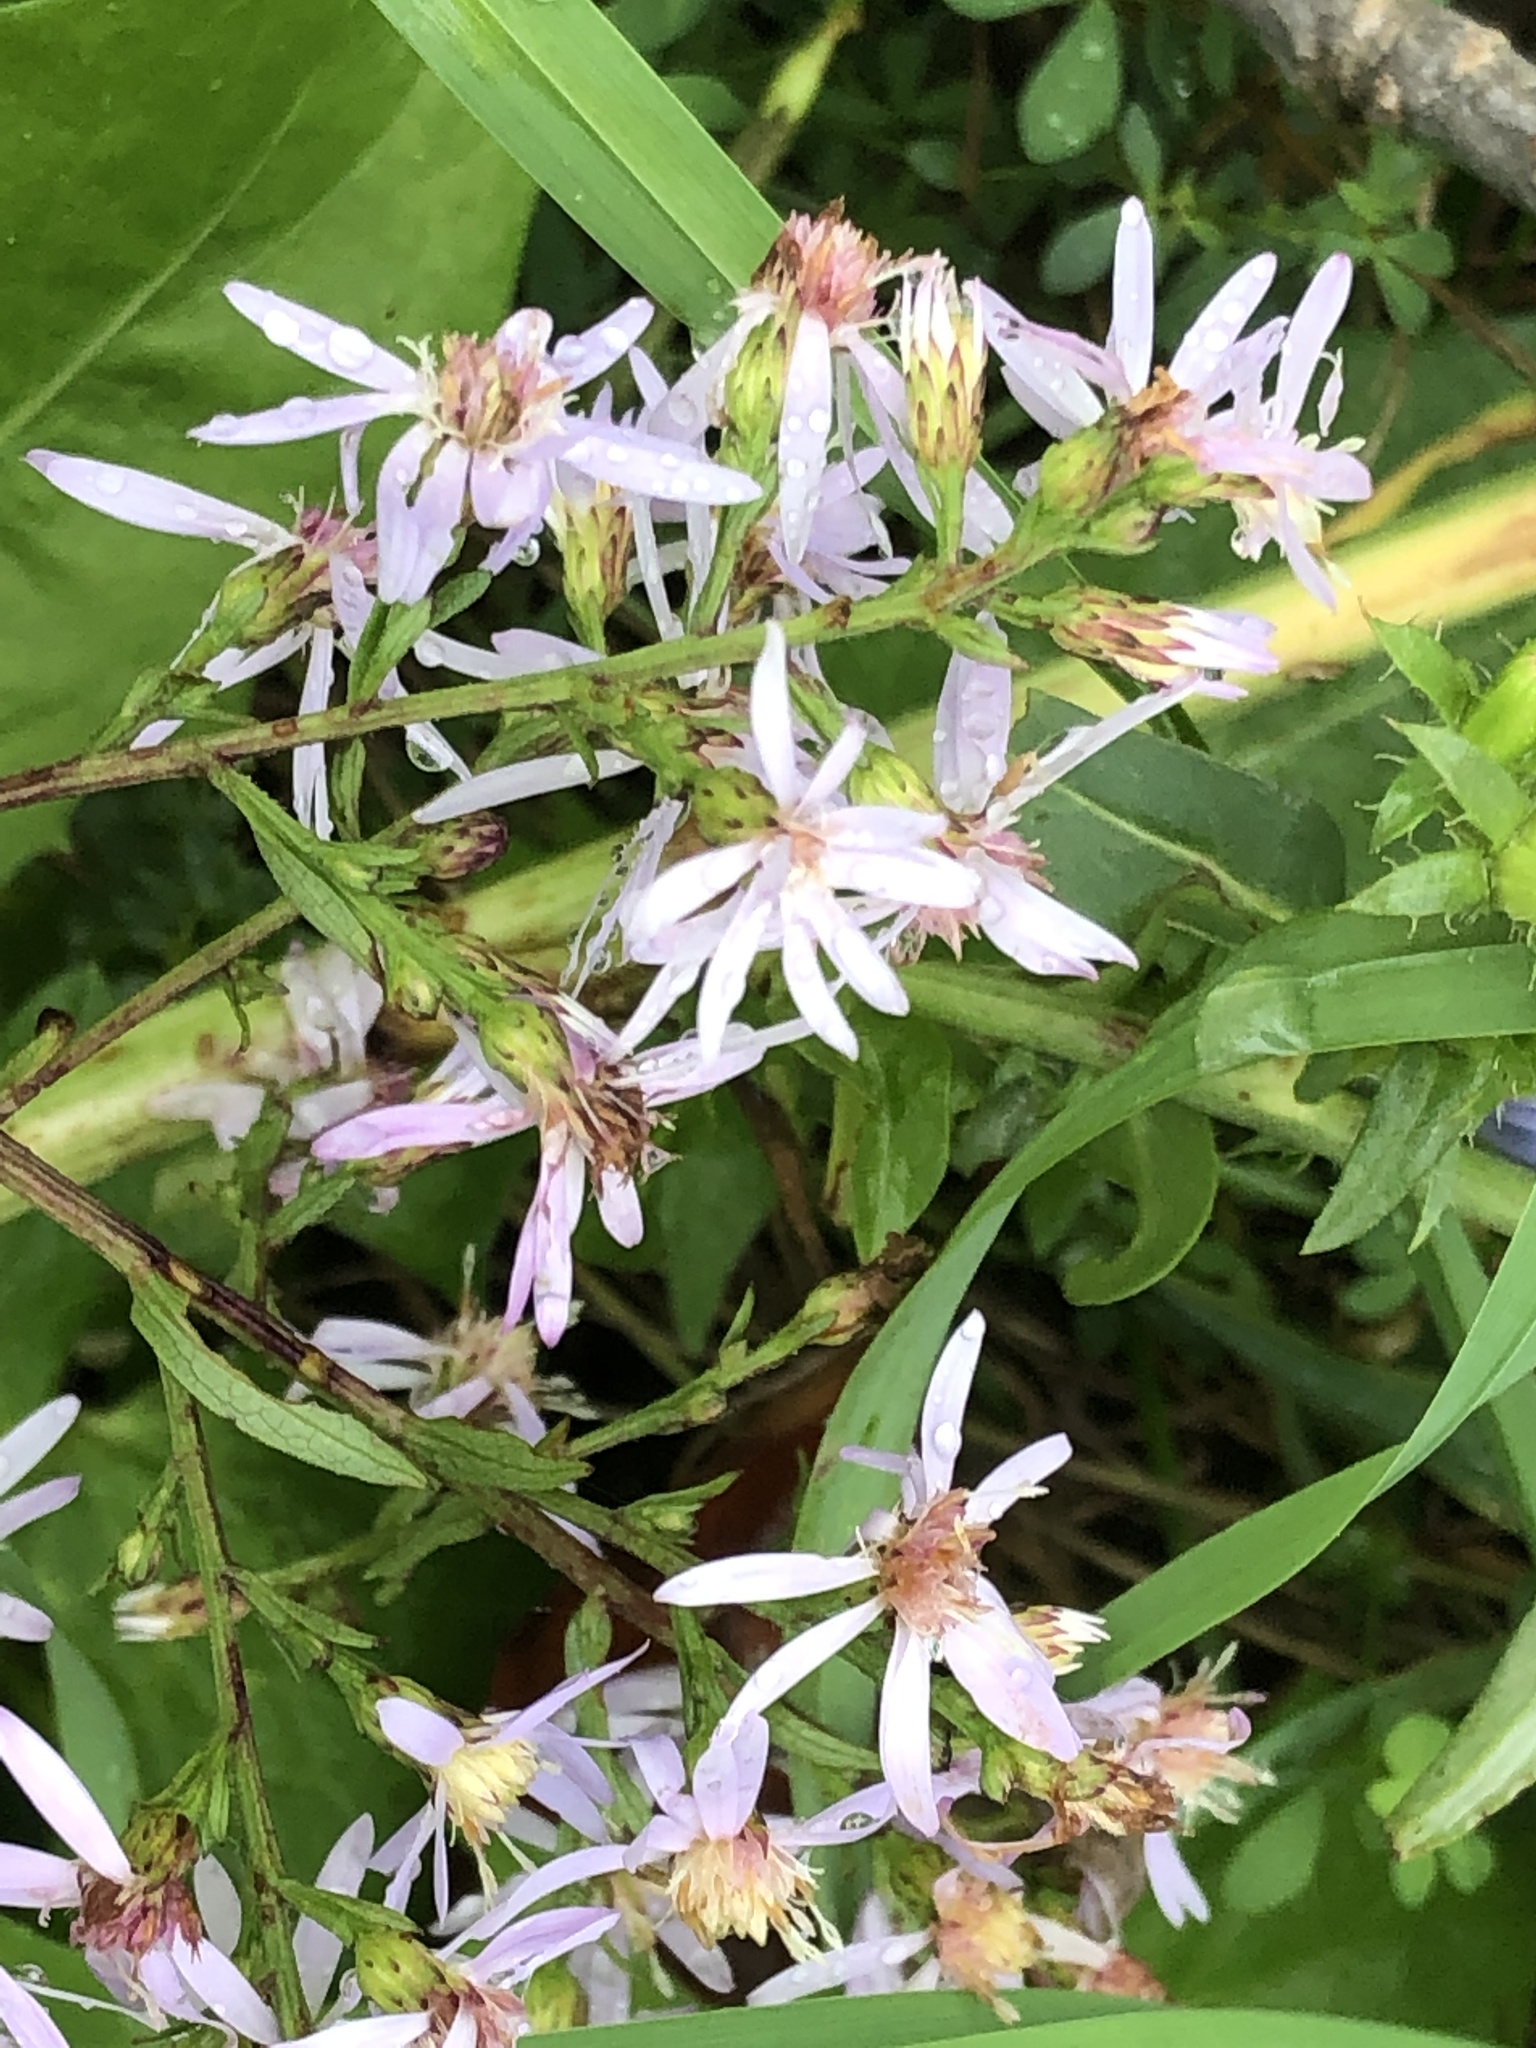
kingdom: Plantae
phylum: Tracheophyta
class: Magnoliopsida
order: Asterales
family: Asteraceae
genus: Symphyotrichum
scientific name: Symphyotrichum cordifolium
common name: Beeweed
